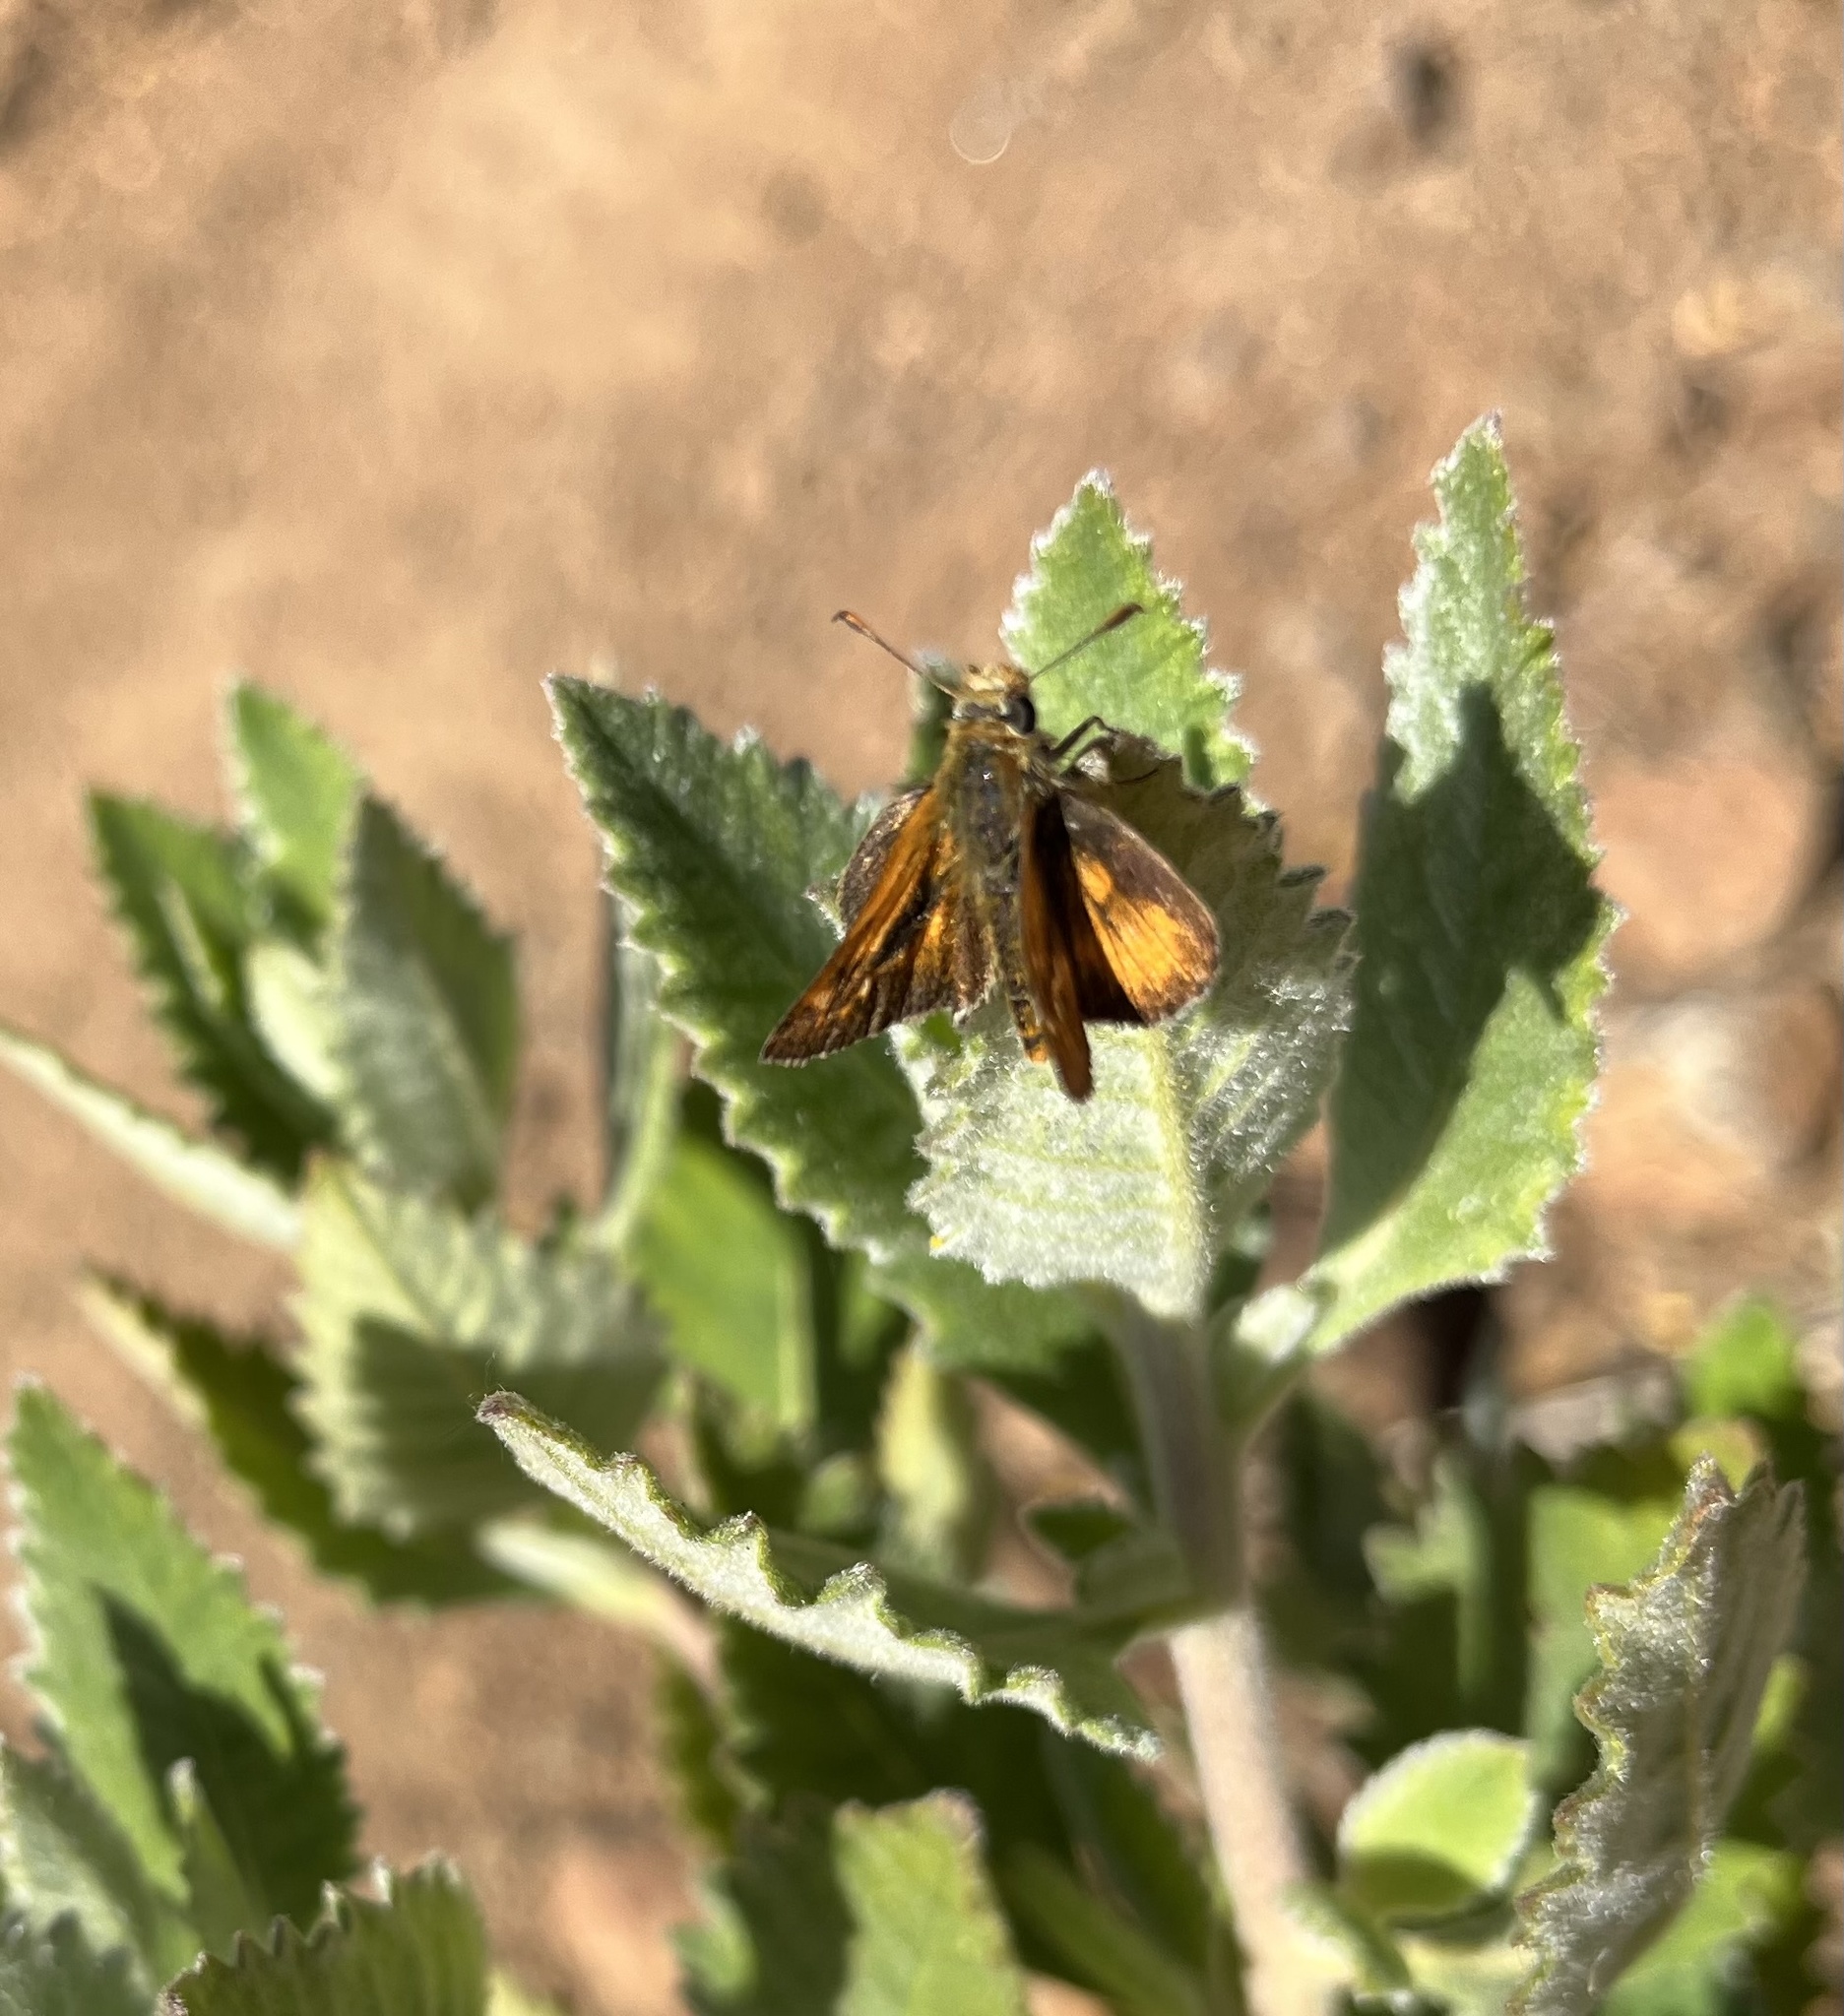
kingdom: Animalia
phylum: Arthropoda
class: Insecta
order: Lepidoptera
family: Hesperiidae
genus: Ochlodes
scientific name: Ochlodes agricola
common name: Rural skipper
